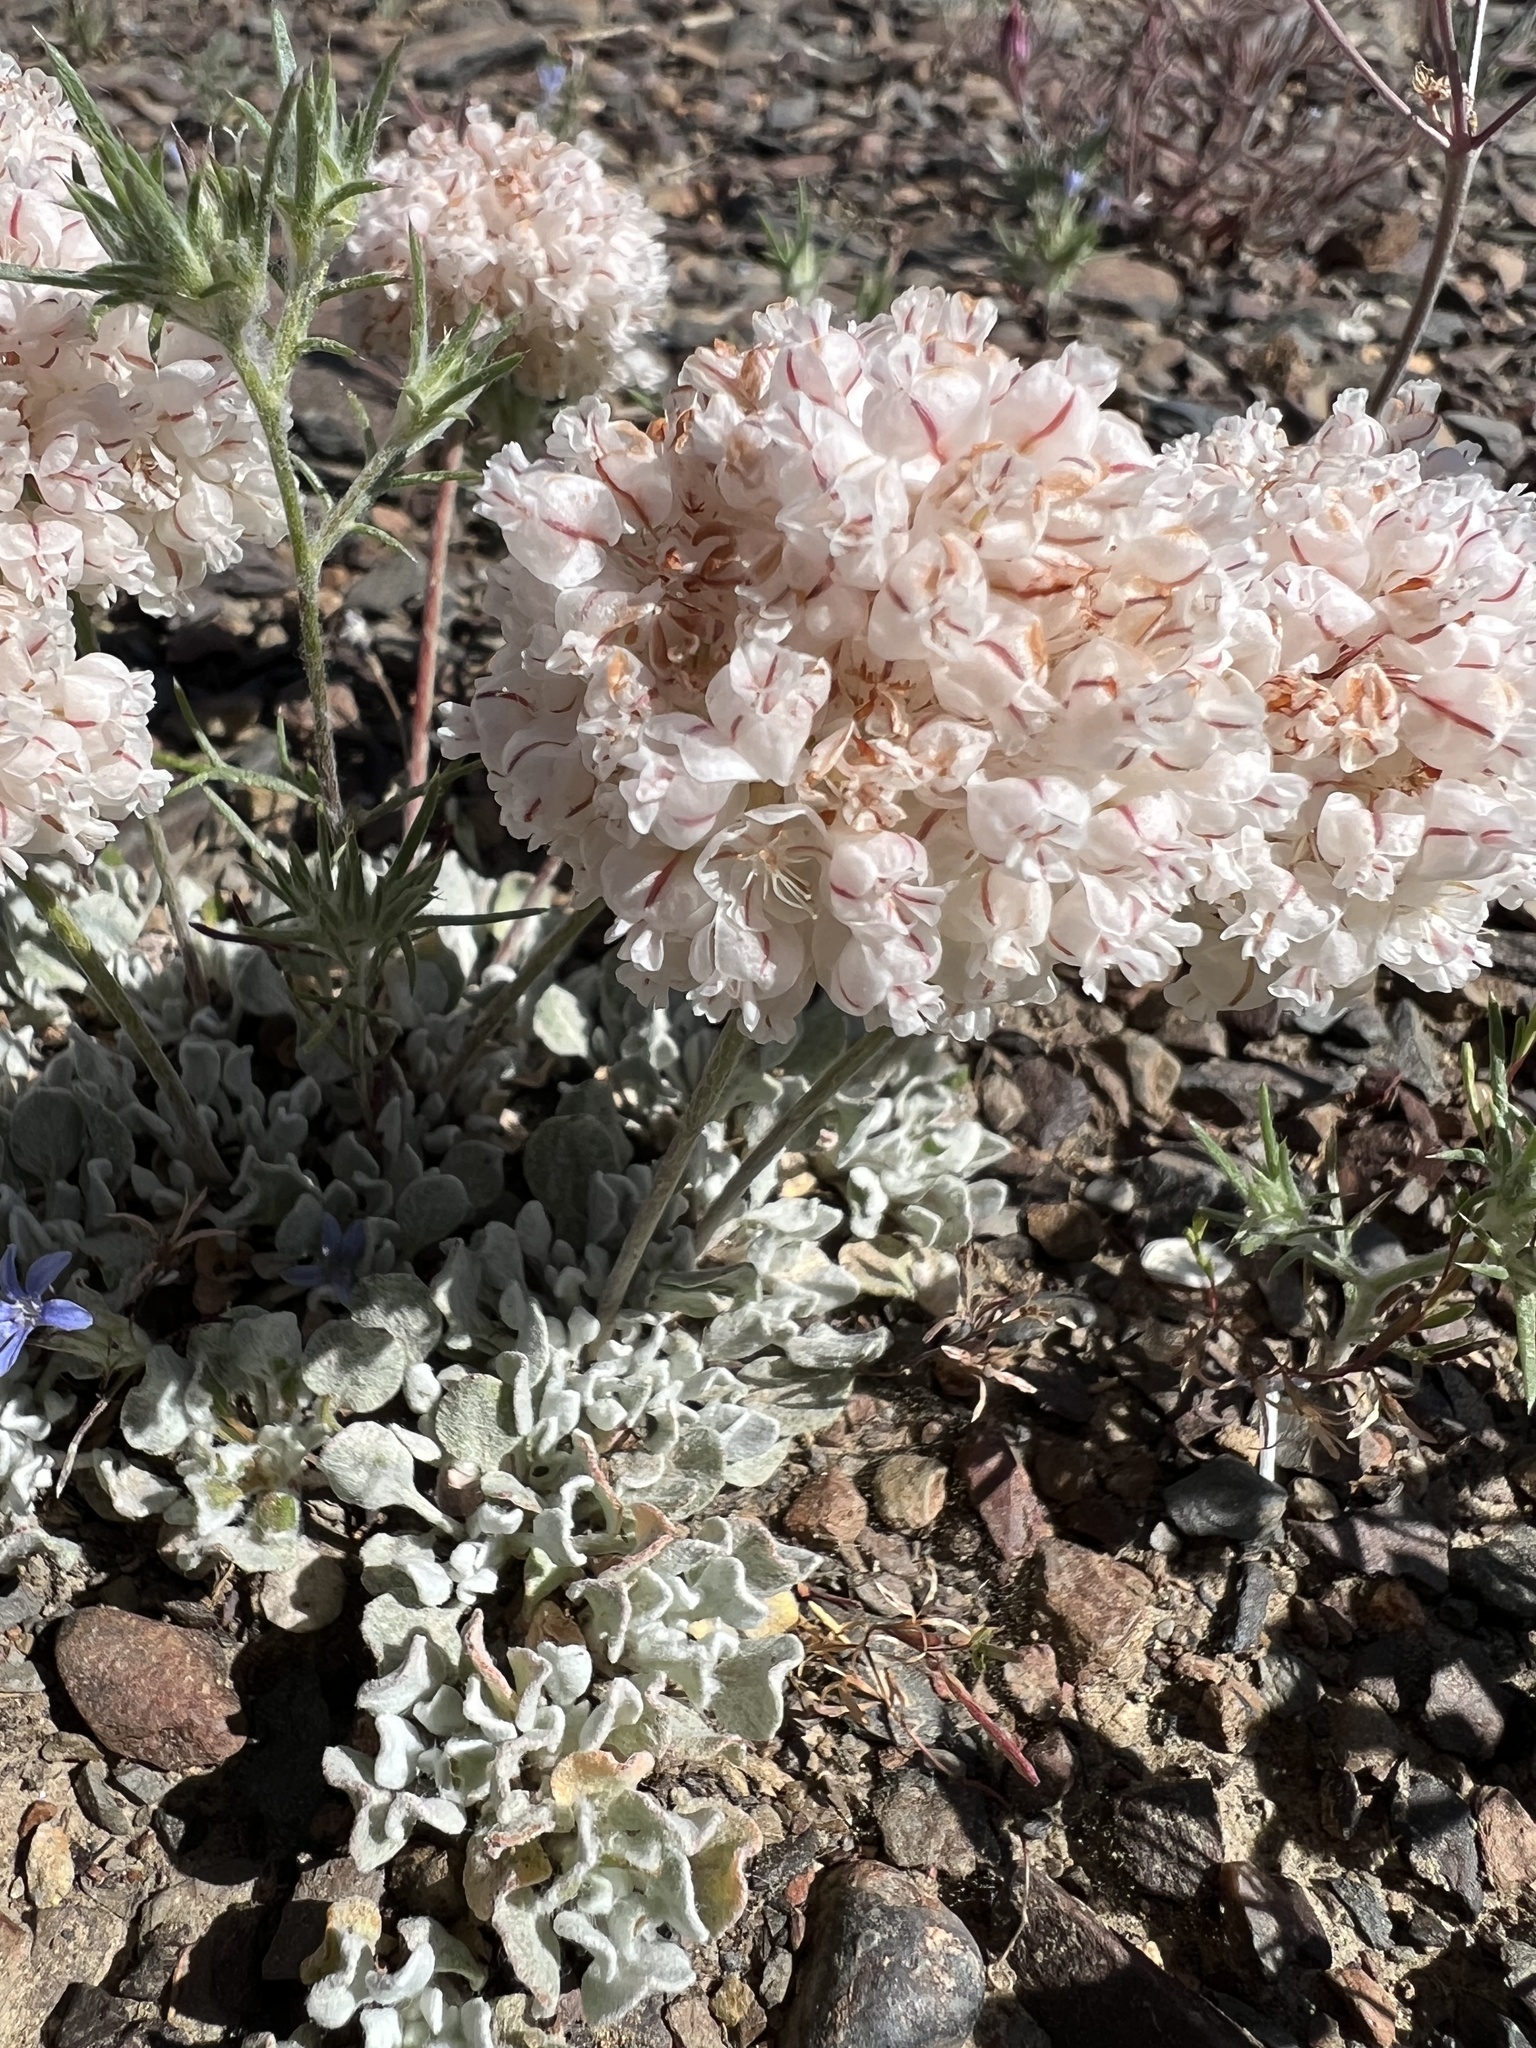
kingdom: Plantae
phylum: Tracheophyta
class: Magnoliopsida
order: Caryophyllales
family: Polygonaceae
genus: Eriogonum
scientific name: Eriogonum ovalifolium
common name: Cushion buckwheat
